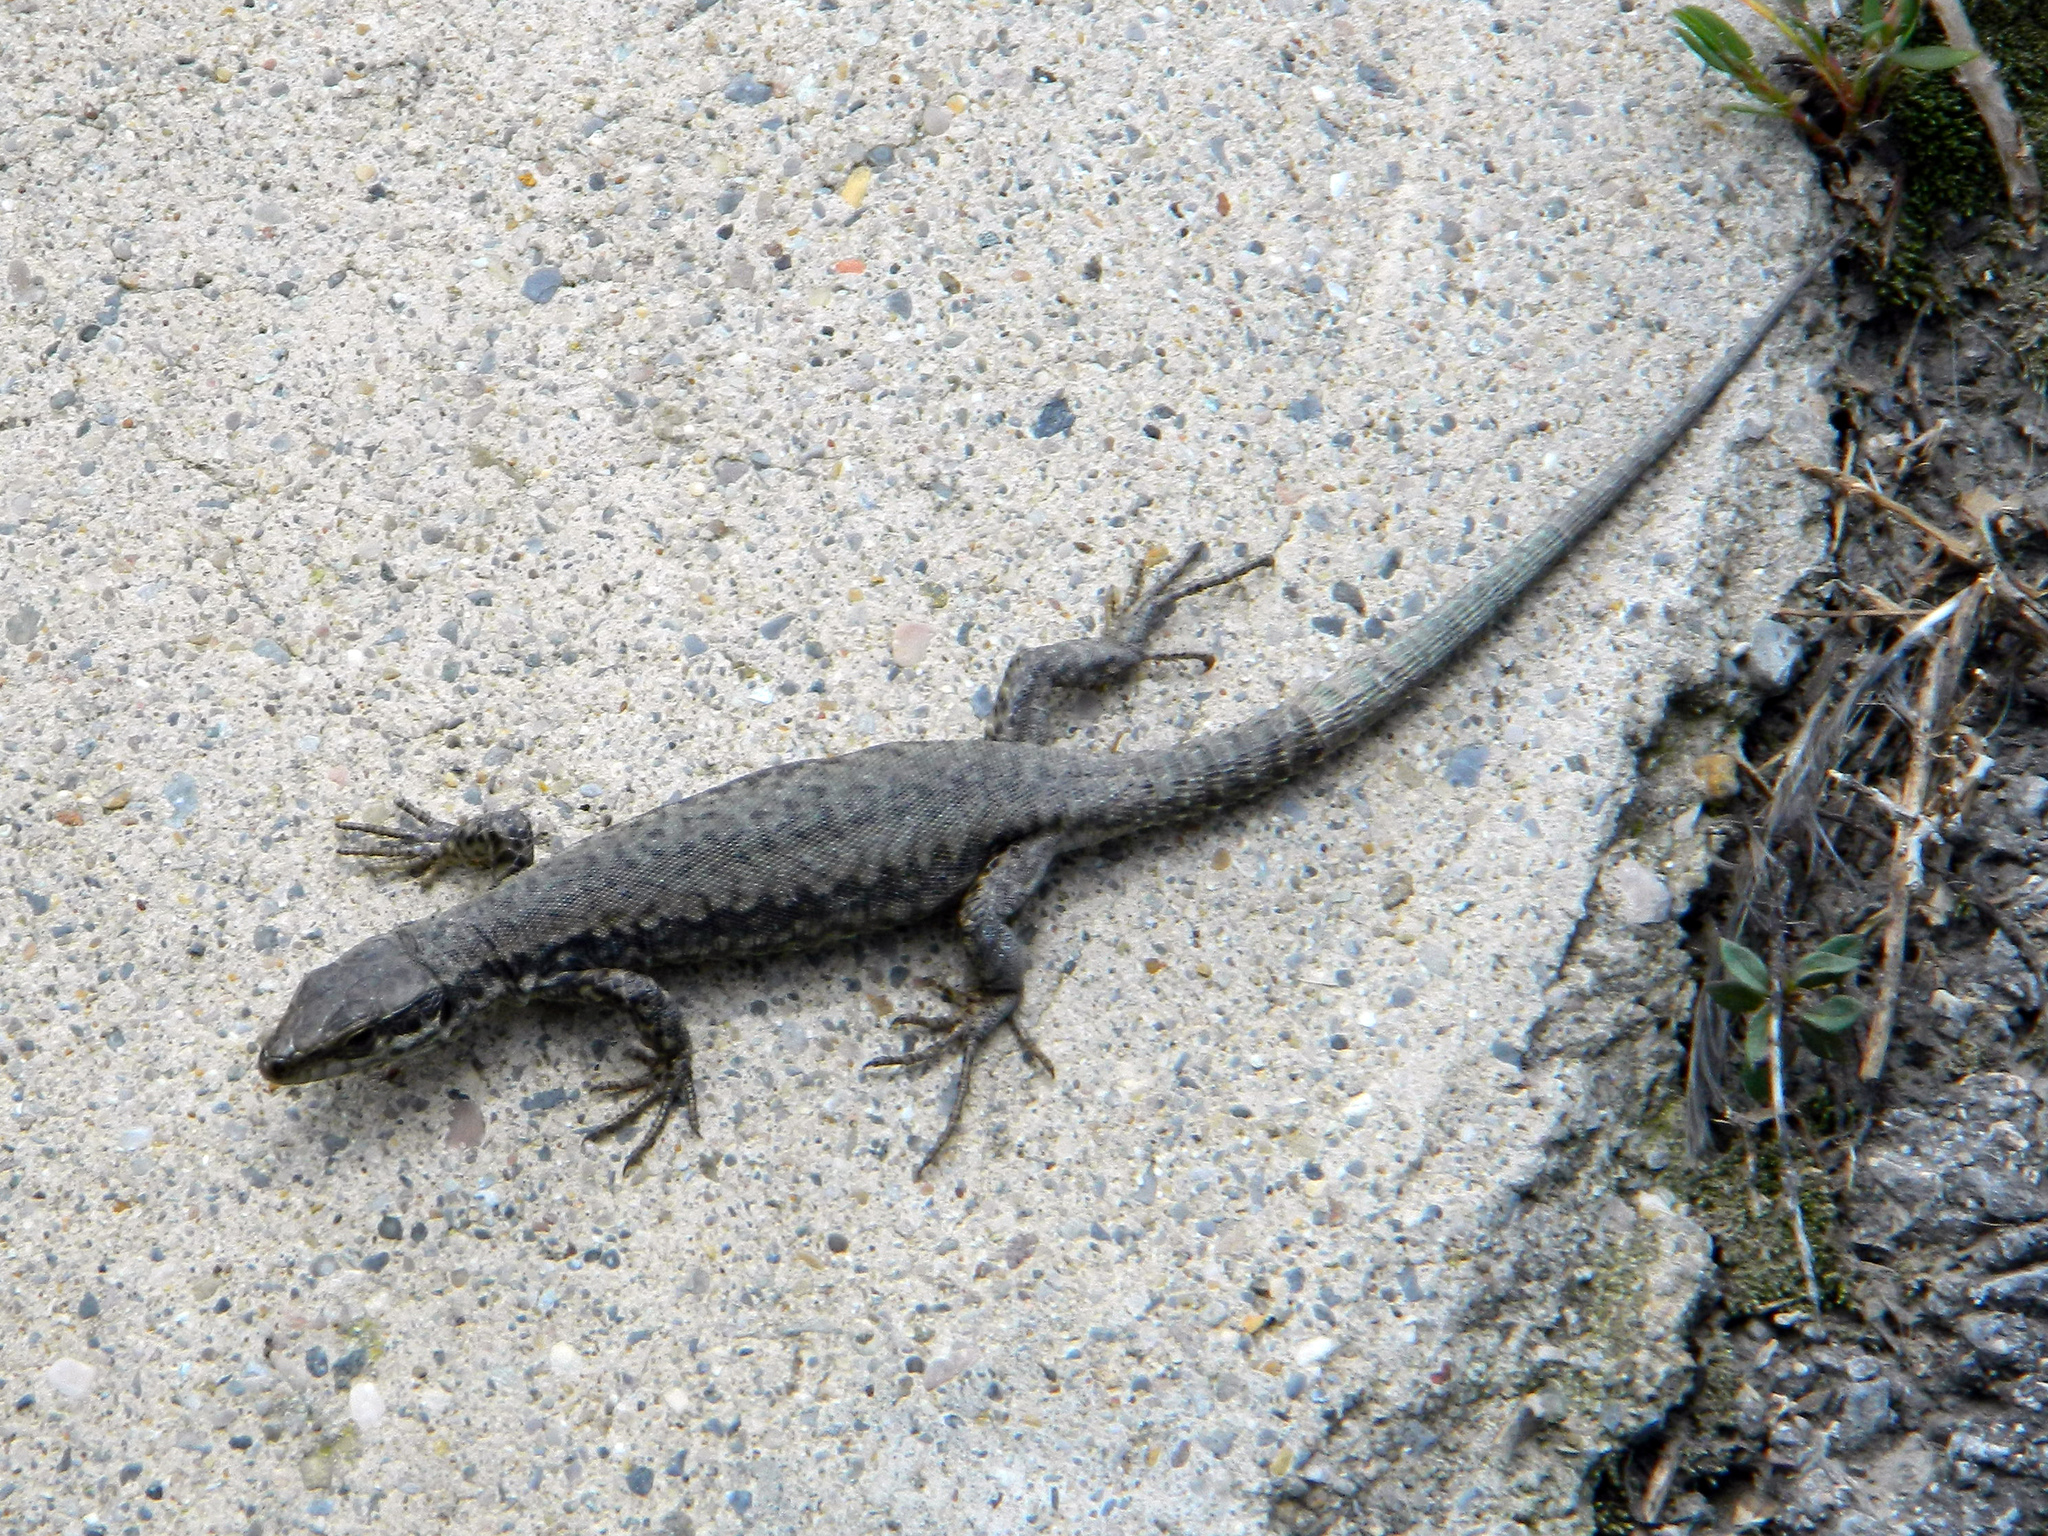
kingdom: Animalia
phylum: Chordata
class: Squamata
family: Lacertidae
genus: Podarcis
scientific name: Podarcis muralis
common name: Common wall lizard
